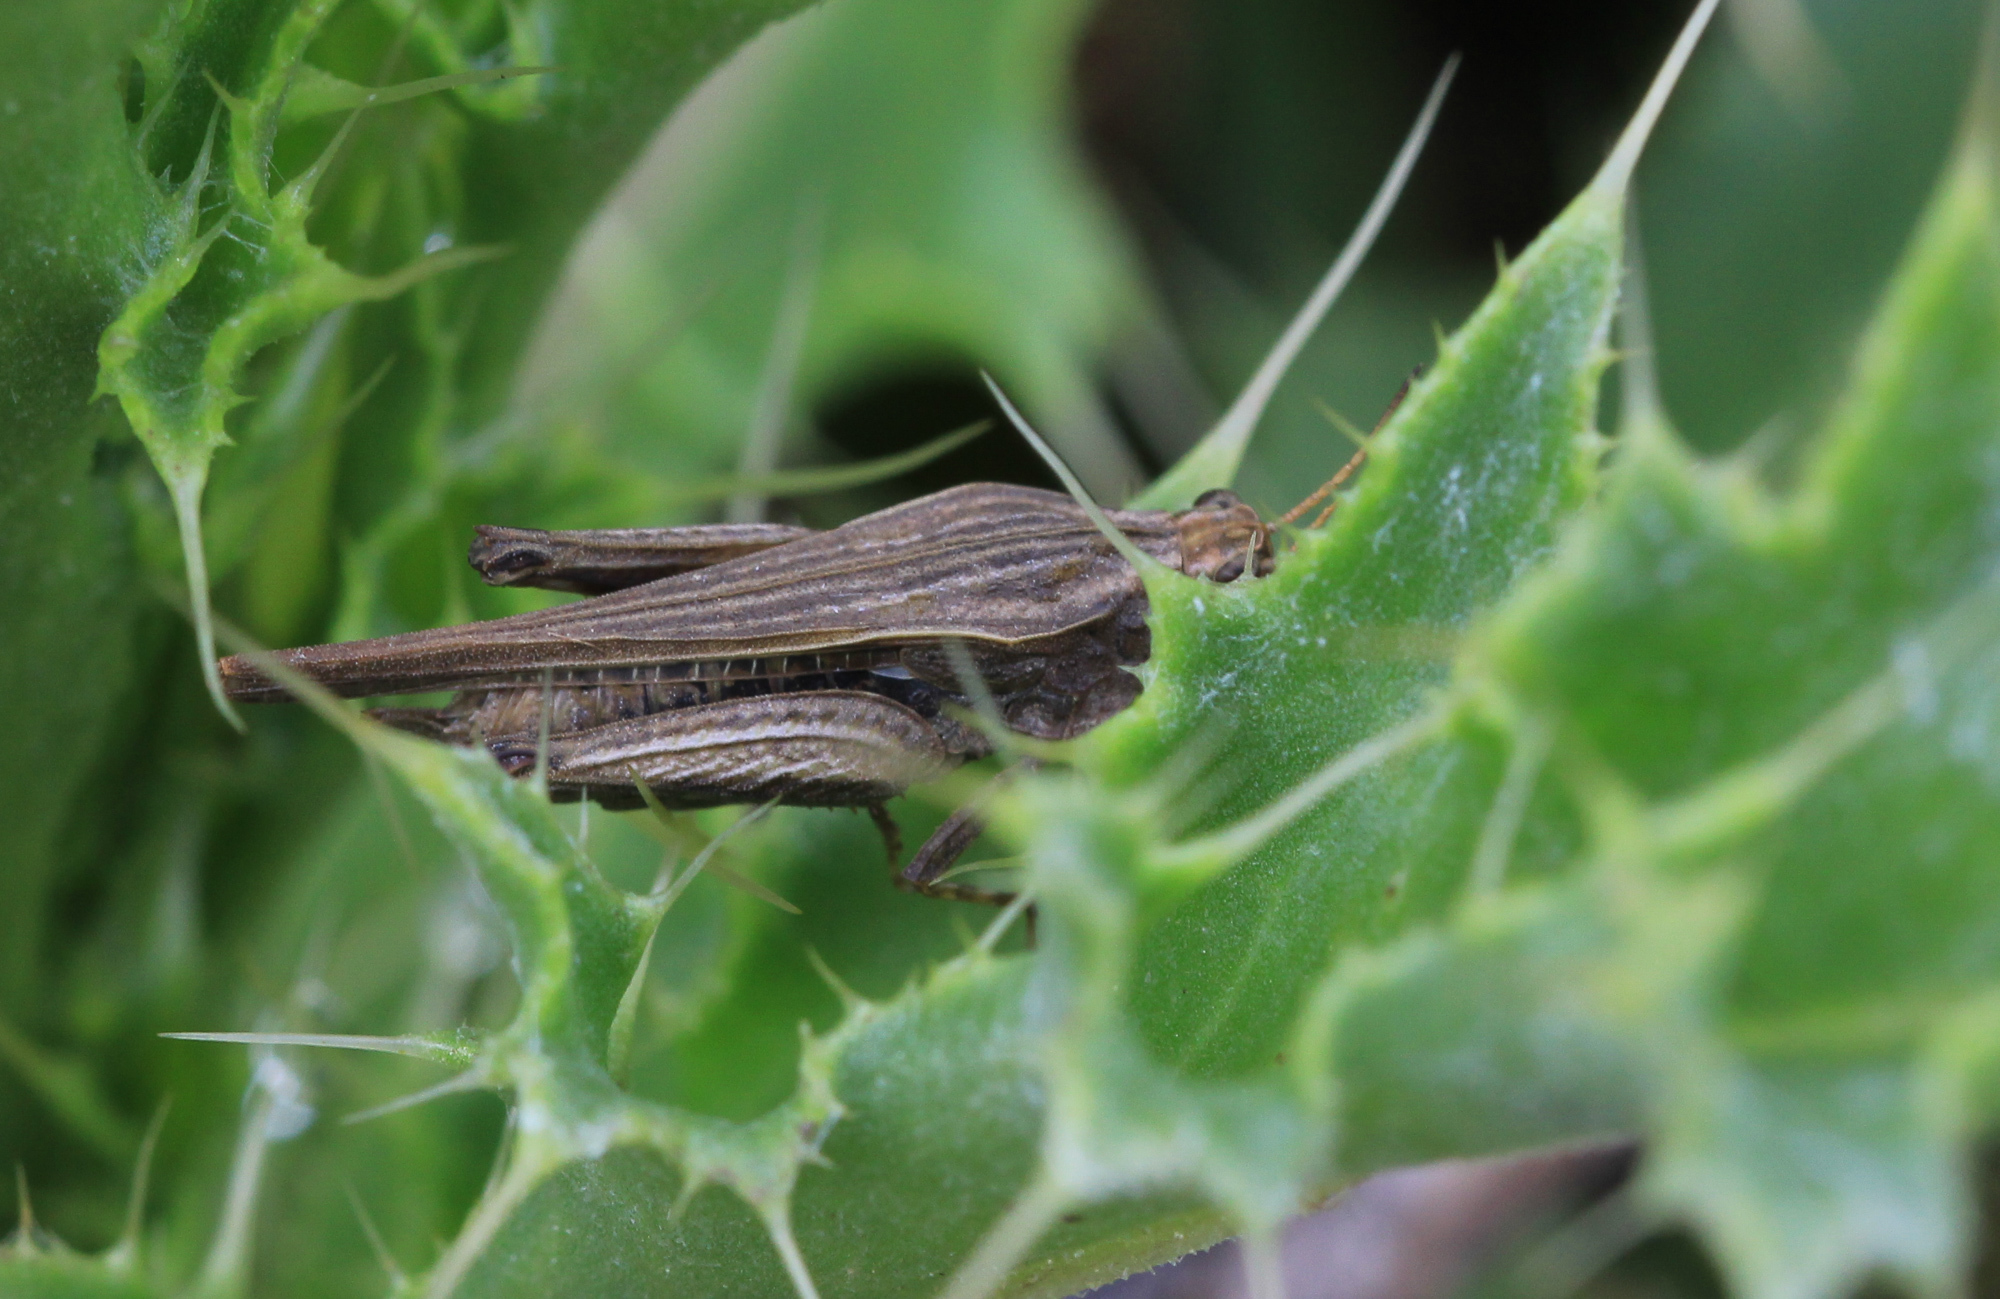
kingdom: Animalia
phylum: Arthropoda
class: Insecta
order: Orthoptera
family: Tetrigidae
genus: Tetrix
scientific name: Tetrix subulata
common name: Slender ground-hopper
